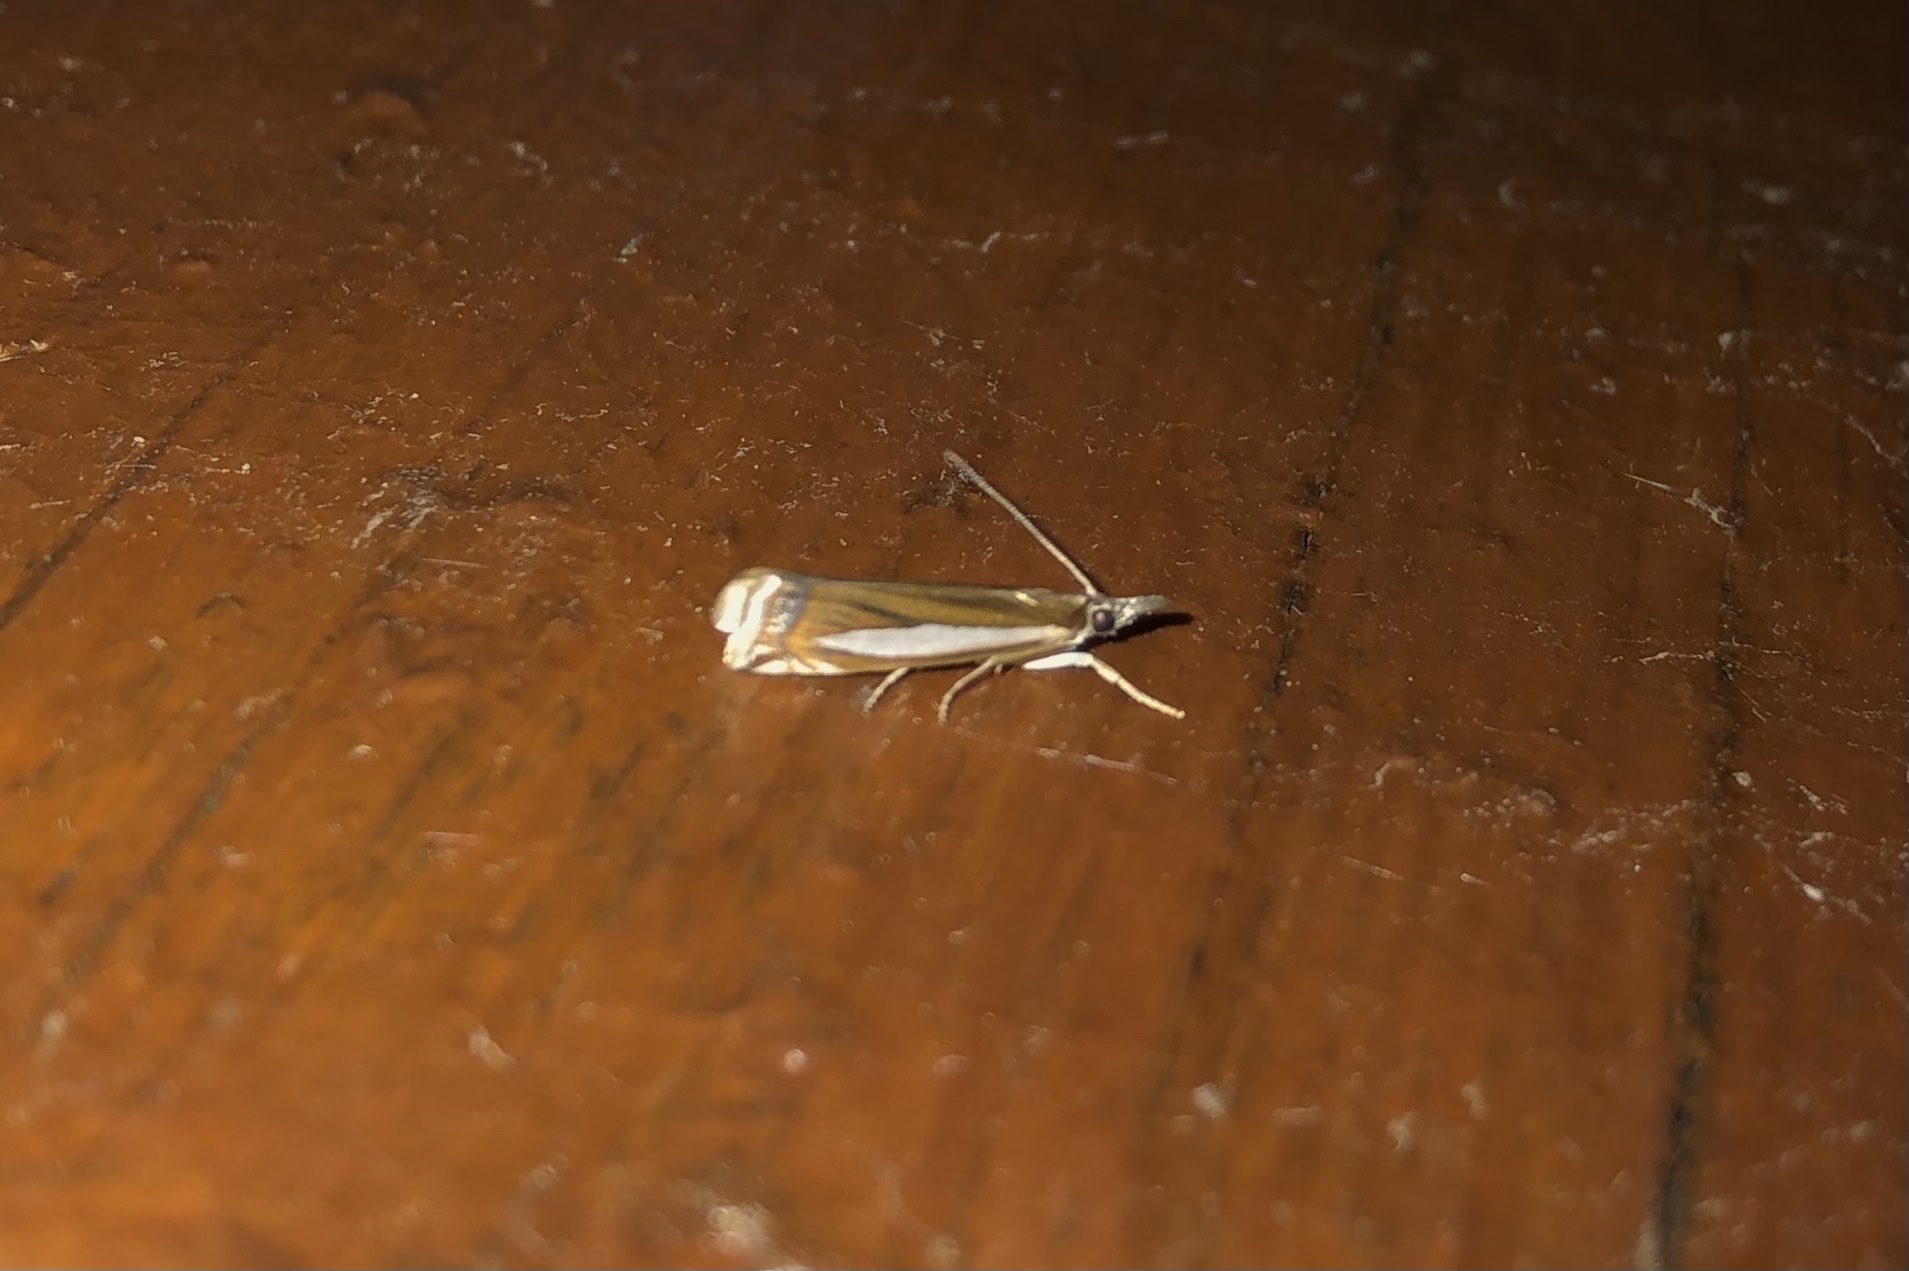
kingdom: Animalia
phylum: Arthropoda
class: Insecta
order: Lepidoptera
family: Crambidae
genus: Crambus
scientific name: Crambus praefectellus
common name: Common grass-veneer
